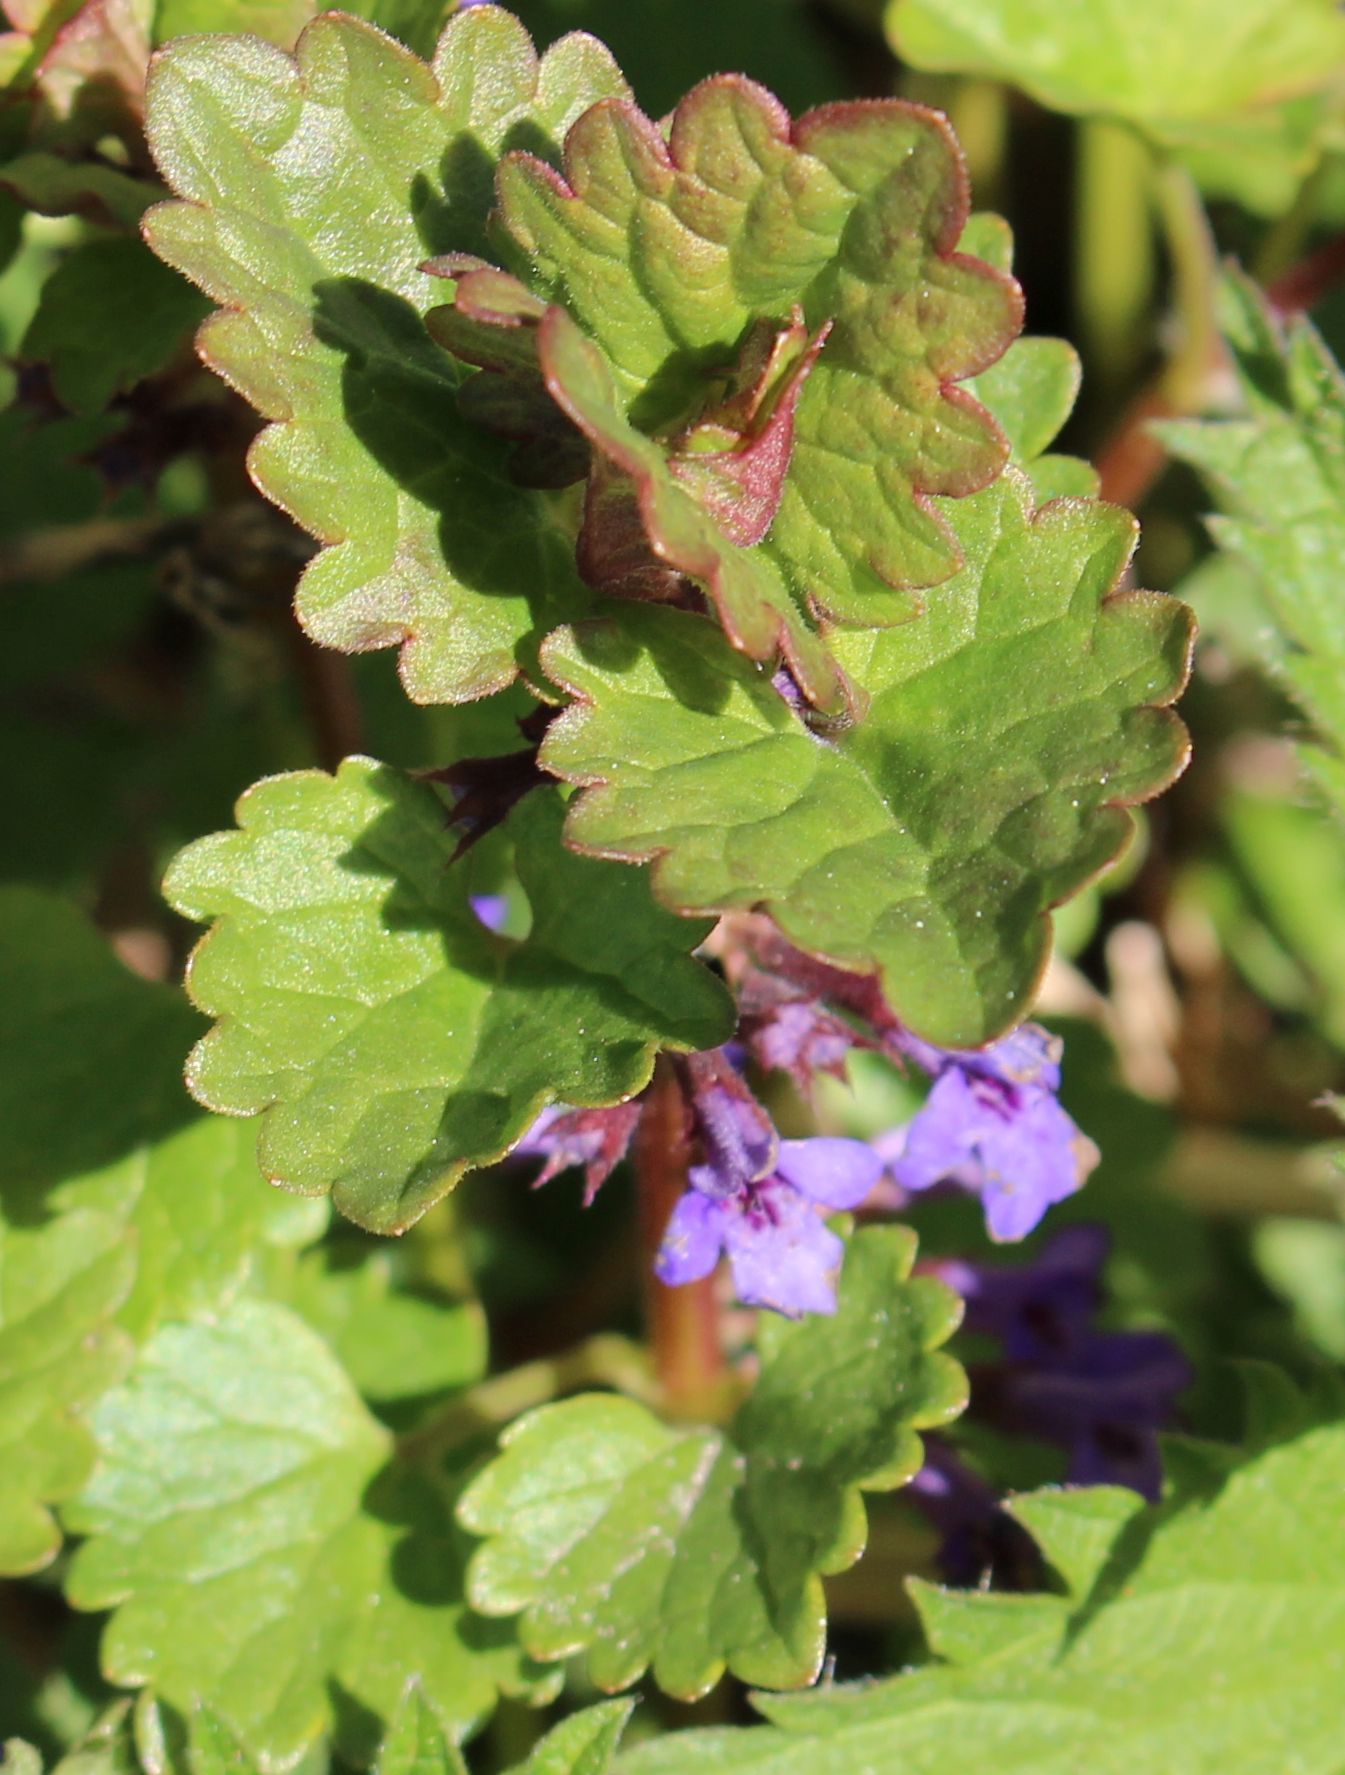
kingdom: Plantae
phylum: Tracheophyta
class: Magnoliopsida
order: Lamiales
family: Lamiaceae
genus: Glechoma
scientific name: Glechoma hederacea
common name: Ground ivy
